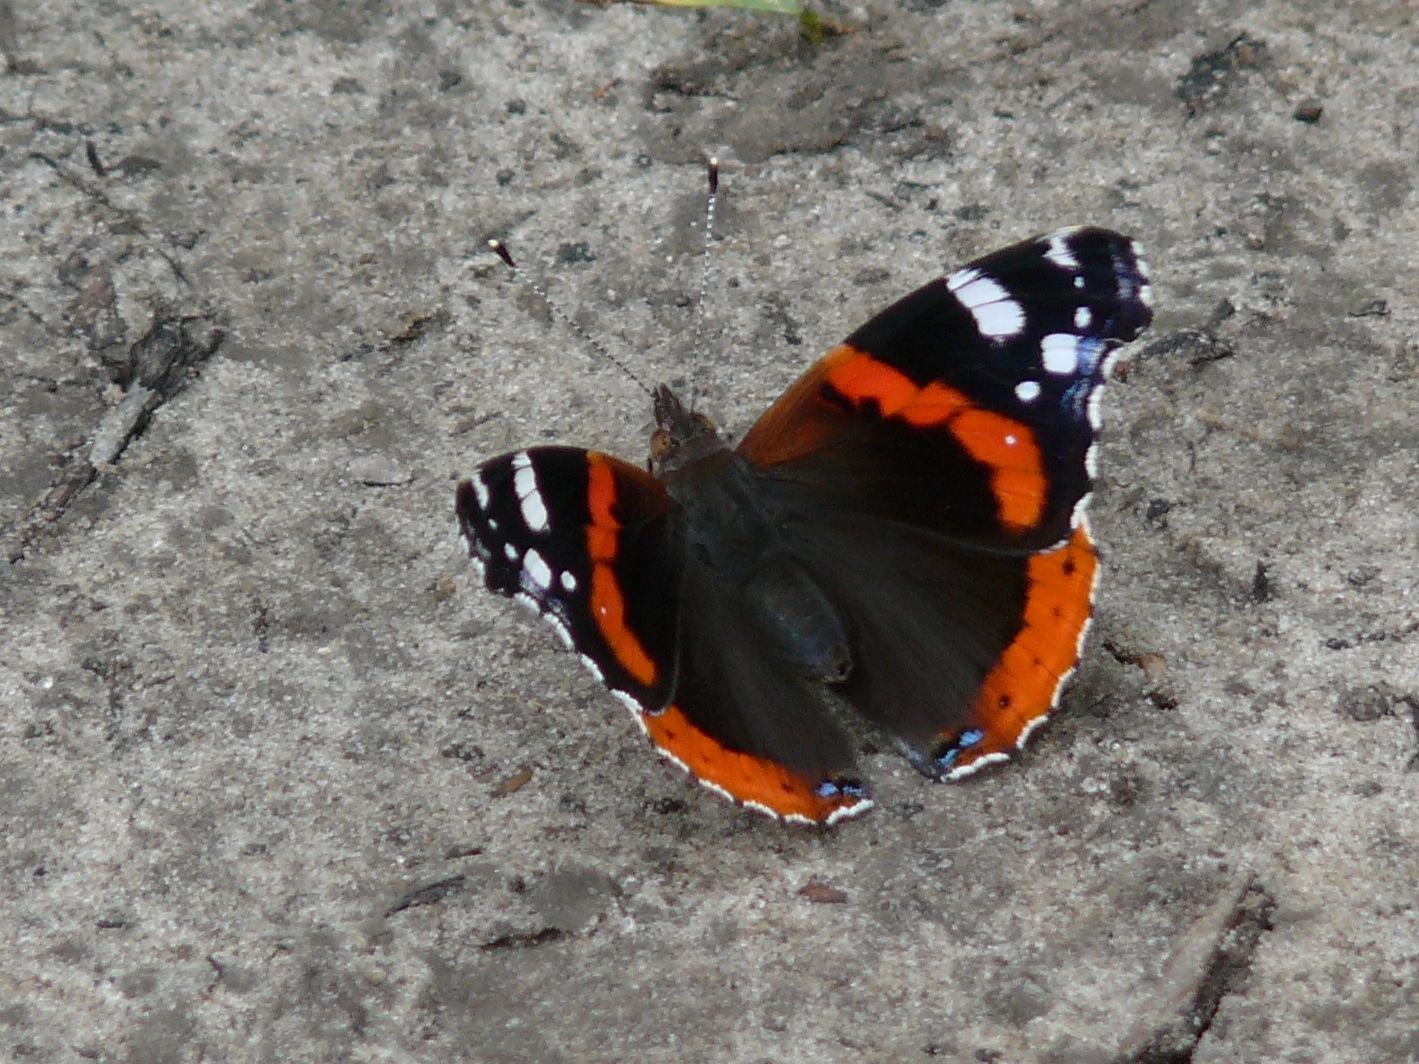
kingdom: Animalia
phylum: Arthropoda
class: Insecta
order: Lepidoptera
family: Nymphalidae
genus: Vanessa
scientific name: Vanessa atalanta
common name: Red admiral
